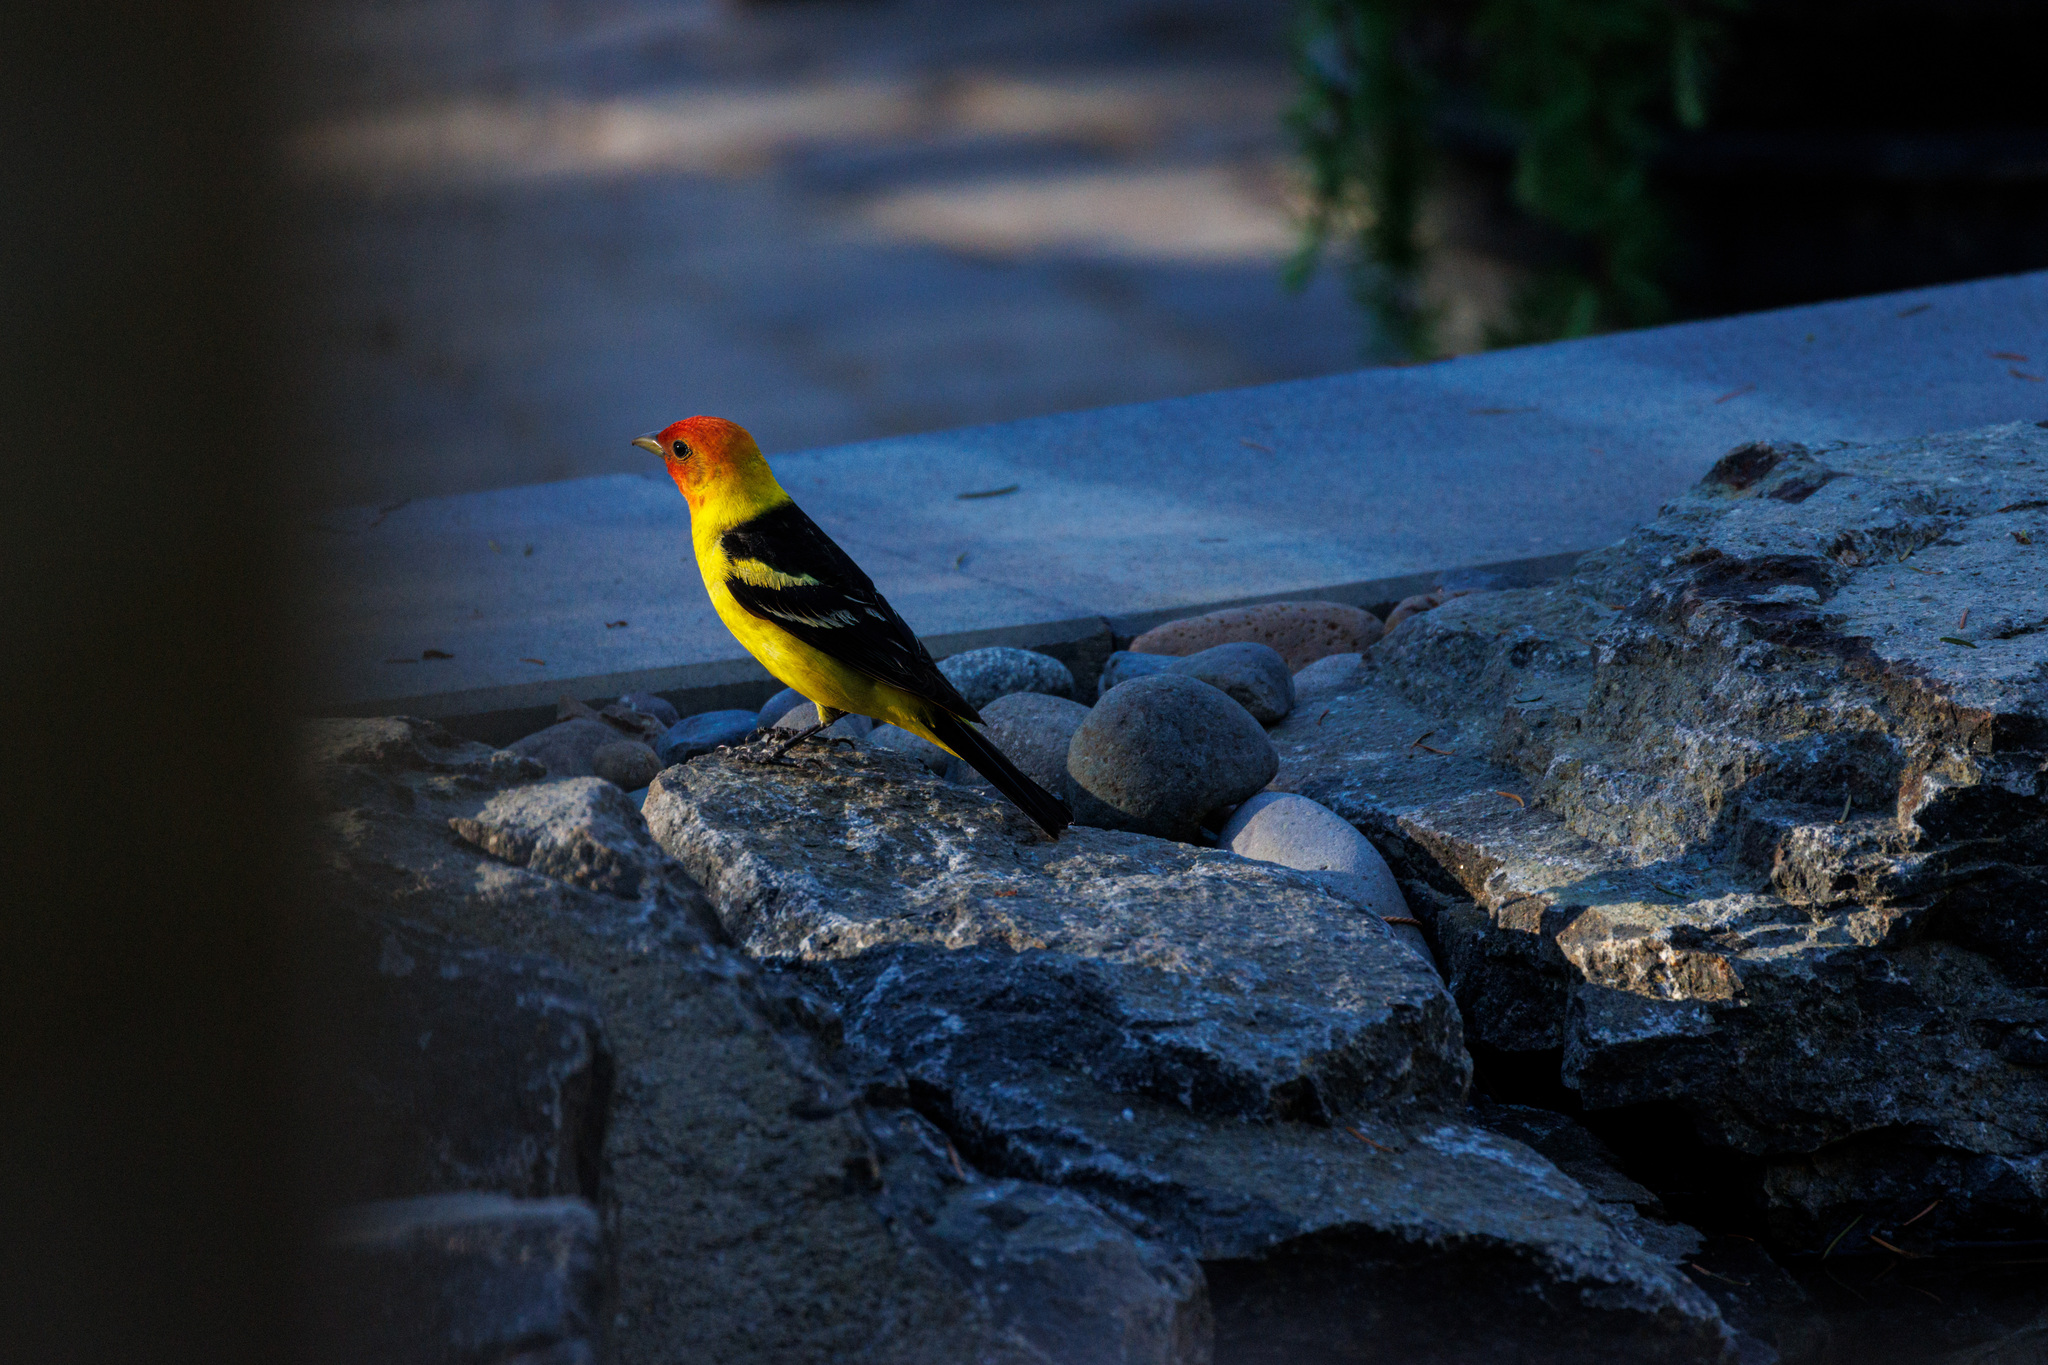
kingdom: Animalia
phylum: Chordata
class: Aves
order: Passeriformes
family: Cardinalidae
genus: Piranga
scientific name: Piranga ludoviciana
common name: Western tanager
